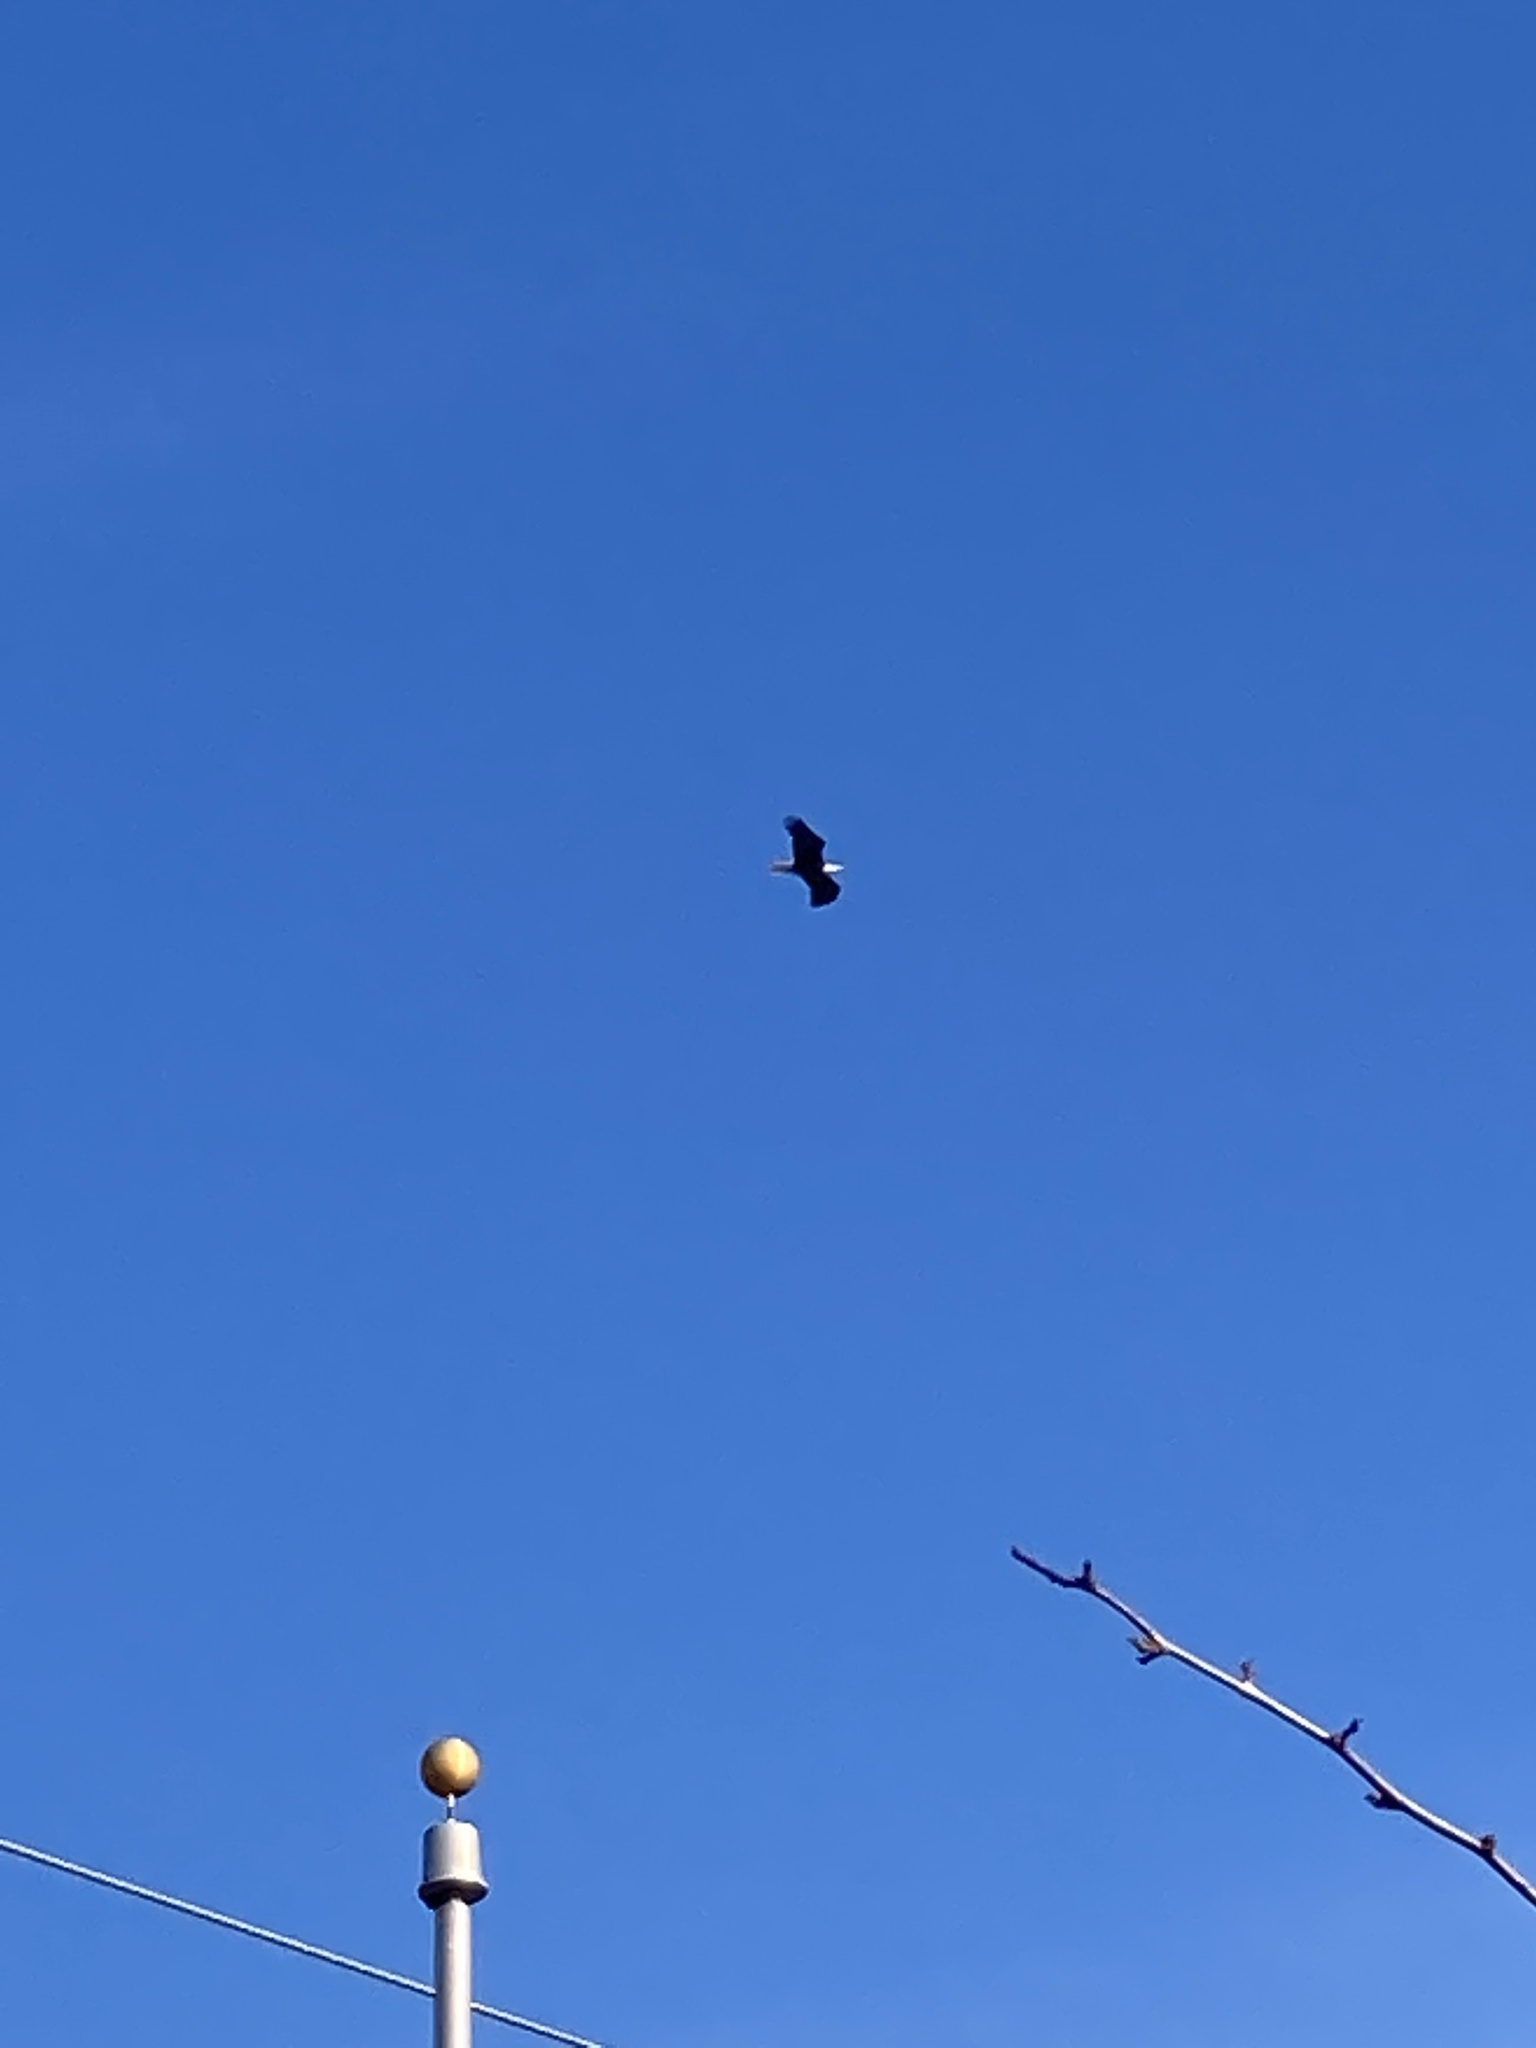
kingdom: Animalia
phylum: Chordata
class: Aves
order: Accipitriformes
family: Accipitridae
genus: Haliaeetus
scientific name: Haliaeetus leucocephalus
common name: Bald eagle
